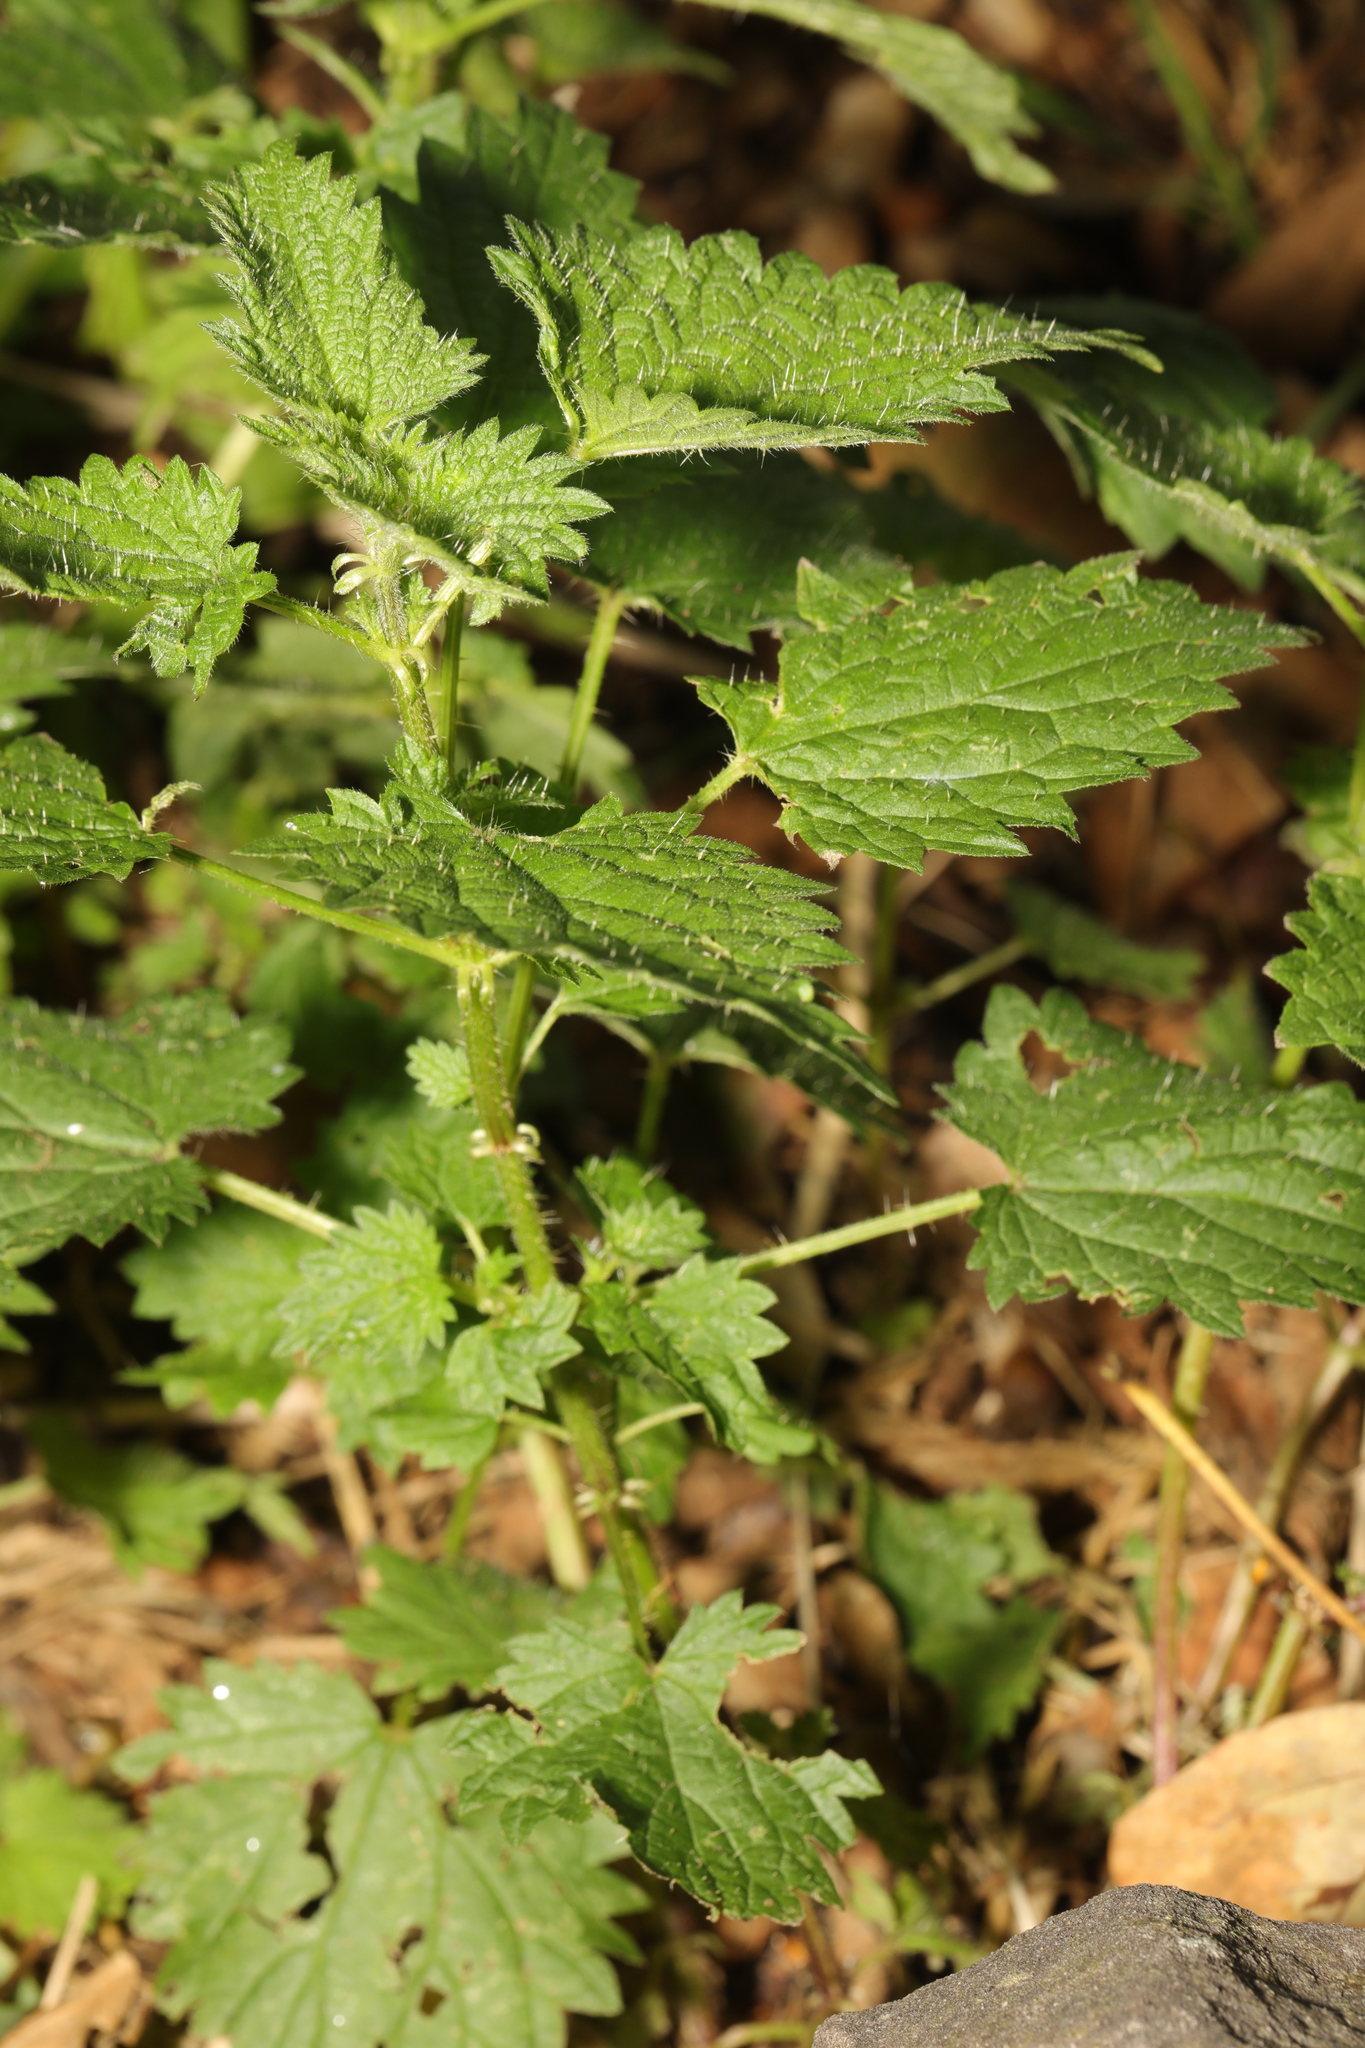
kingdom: Plantae
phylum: Tracheophyta
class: Magnoliopsida
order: Rosales
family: Urticaceae
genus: Urtica
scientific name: Urtica dioica
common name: Common nettle
